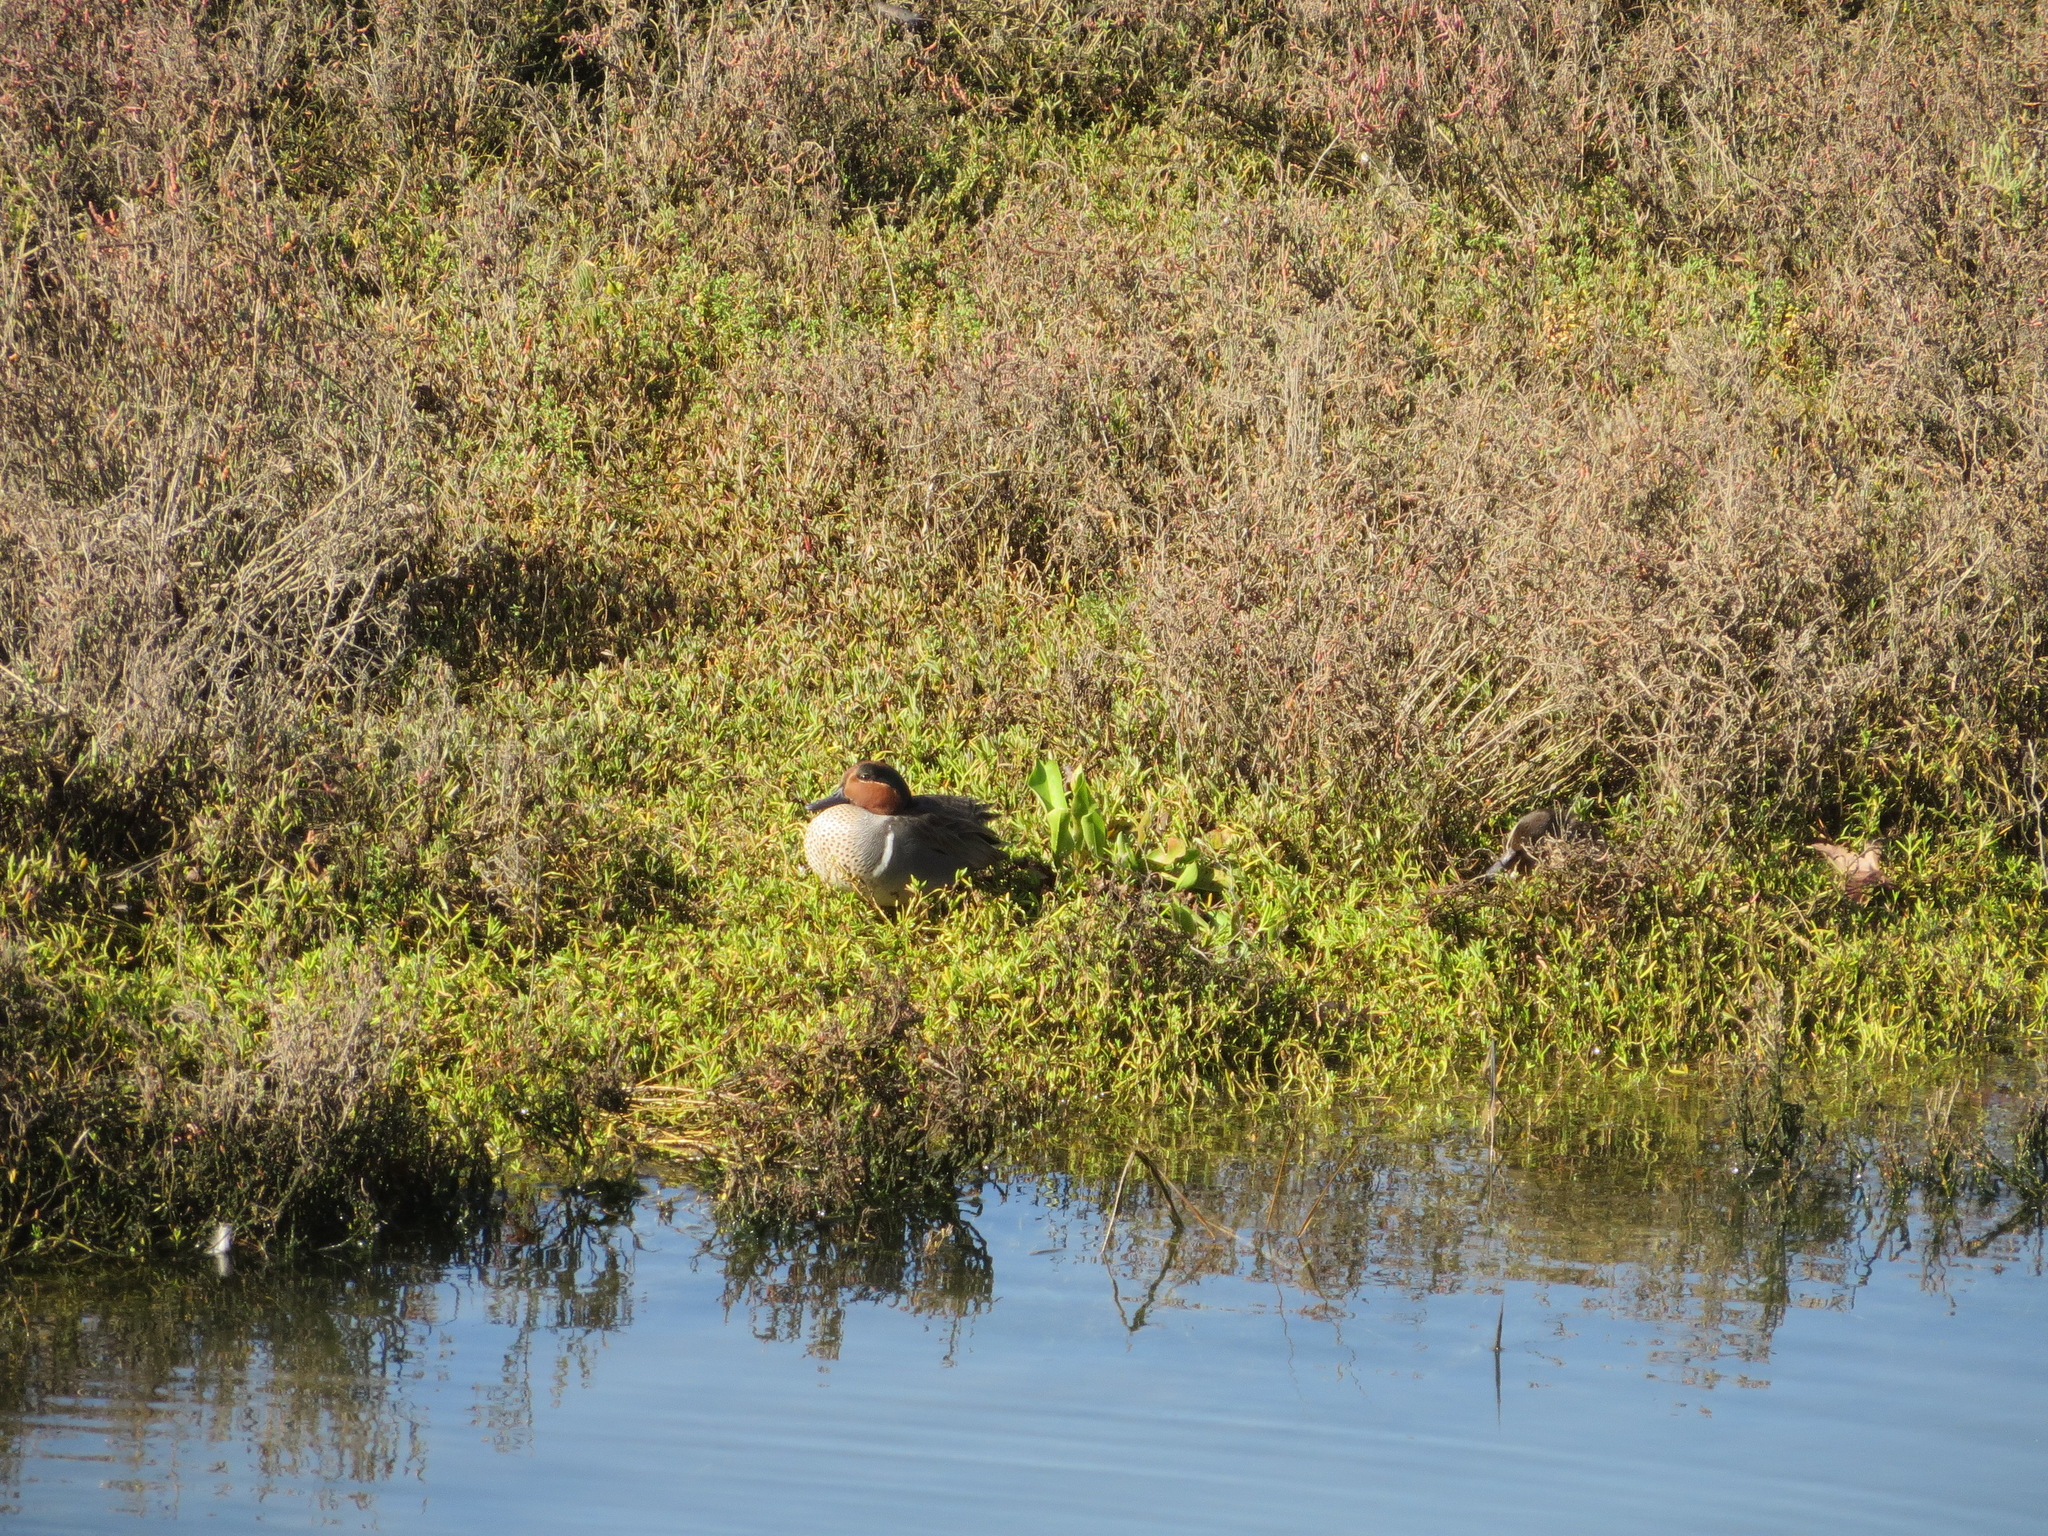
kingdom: Animalia
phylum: Chordata
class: Aves
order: Anseriformes
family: Anatidae
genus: Anas
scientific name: Anas crecca
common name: Eurasian teal
